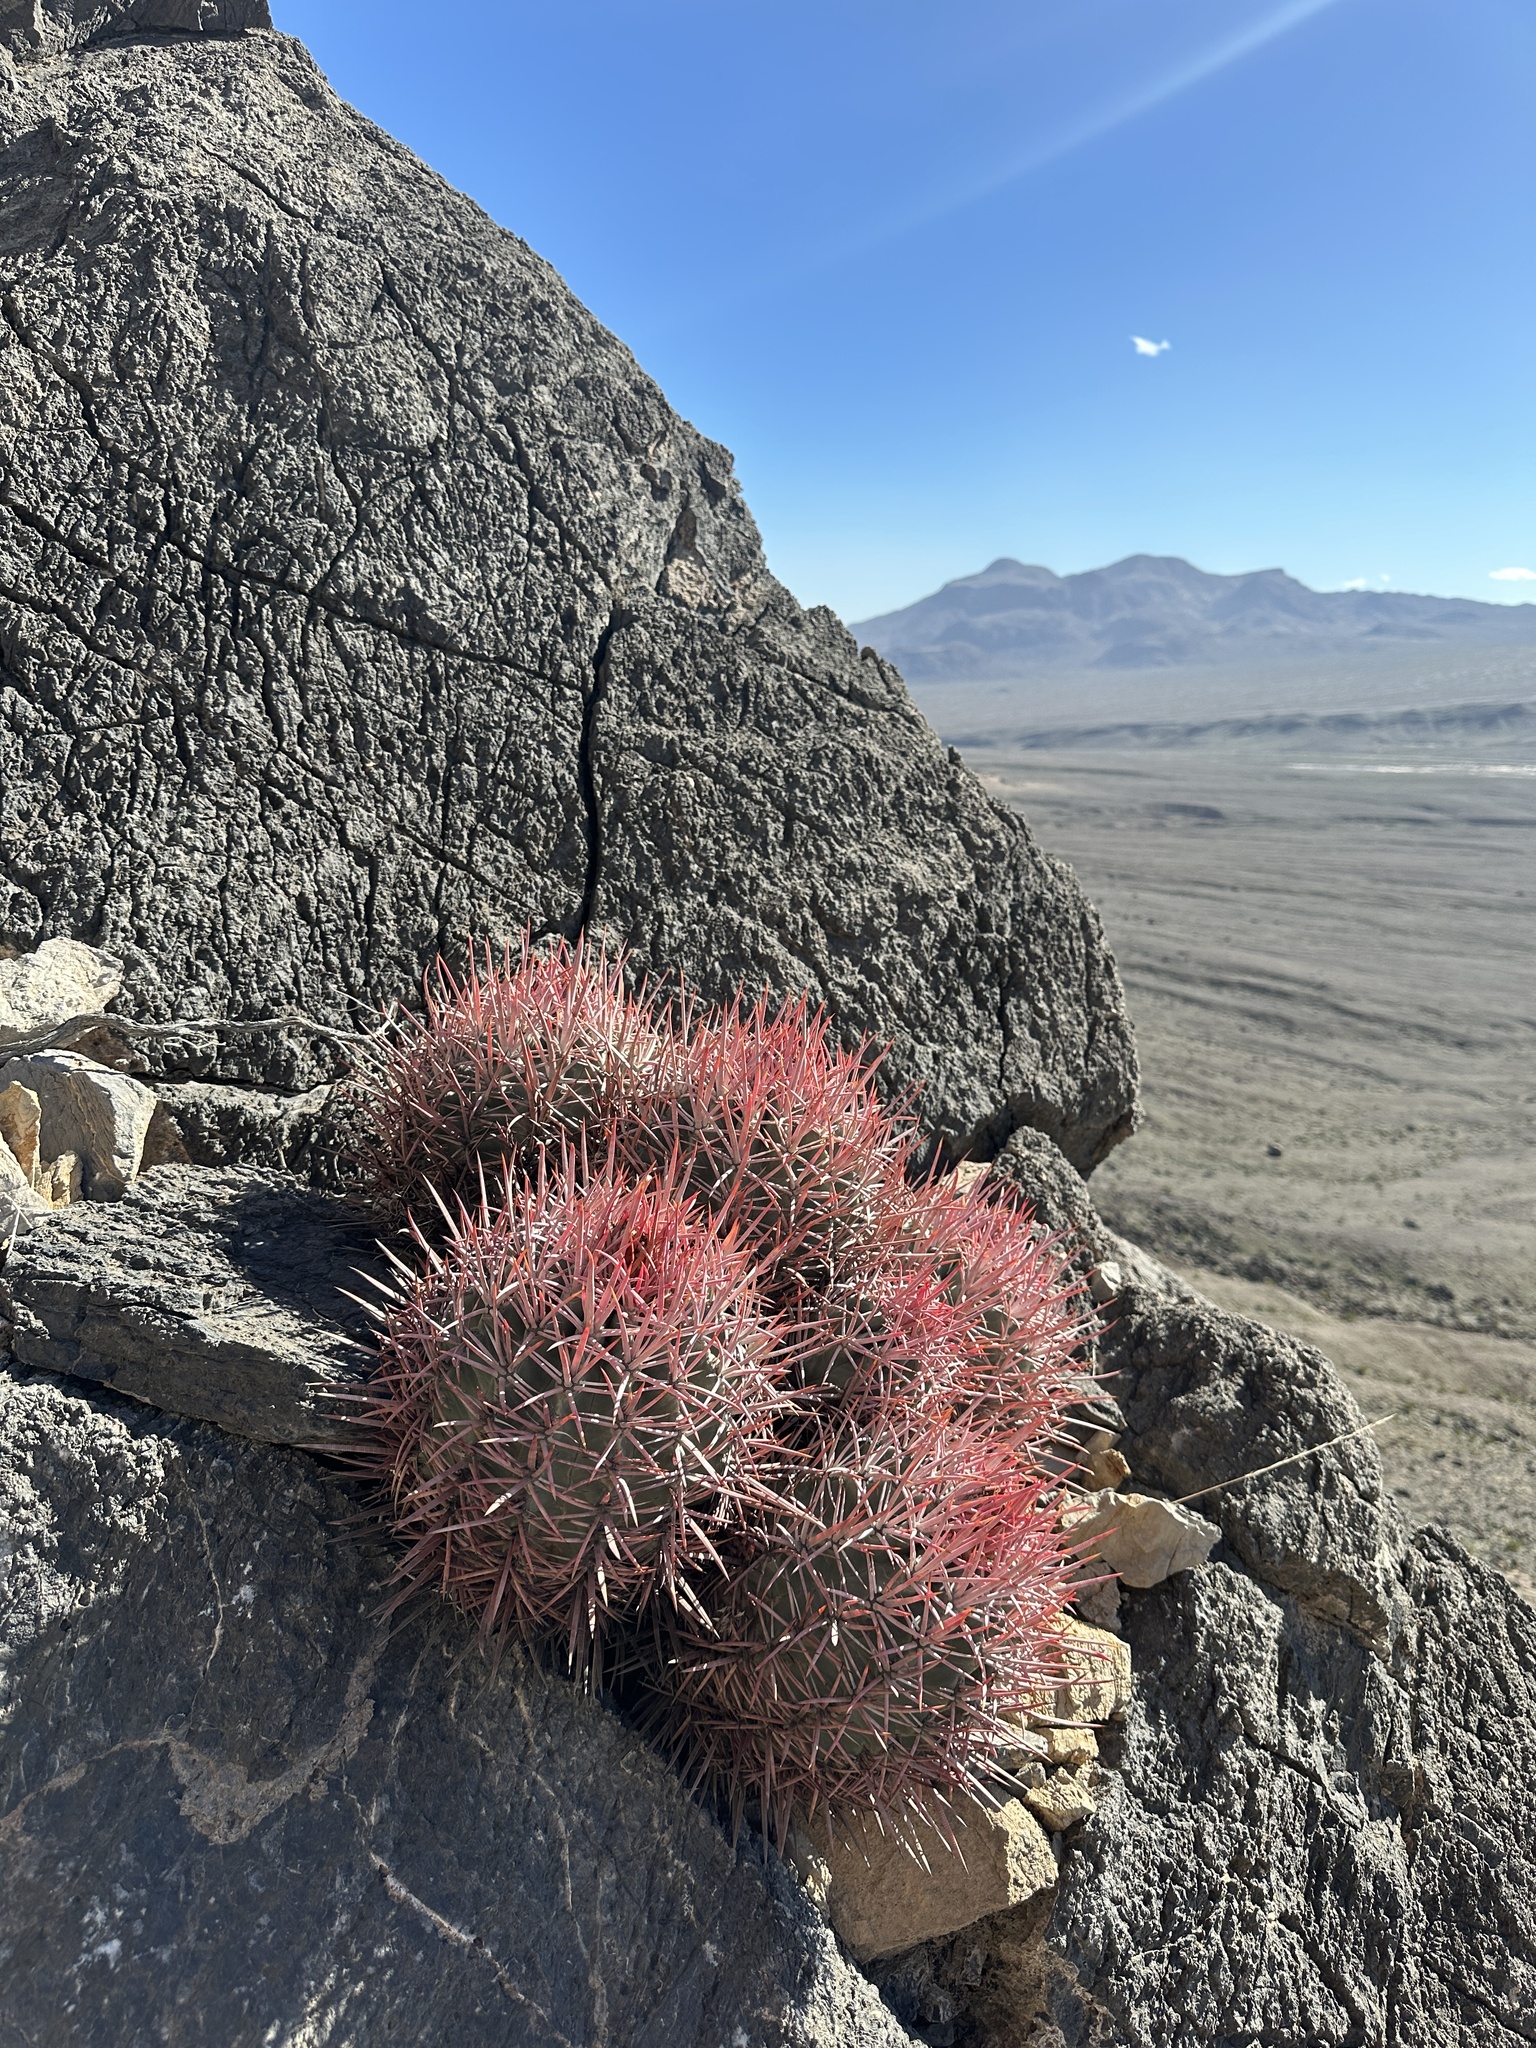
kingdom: Plantae
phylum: Tracheophyta
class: Magnoliopsida
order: Caryophyllales
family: Cactaceae
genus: Echinocactus
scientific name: Echinocactus polycephalus
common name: Cottontop cactus
